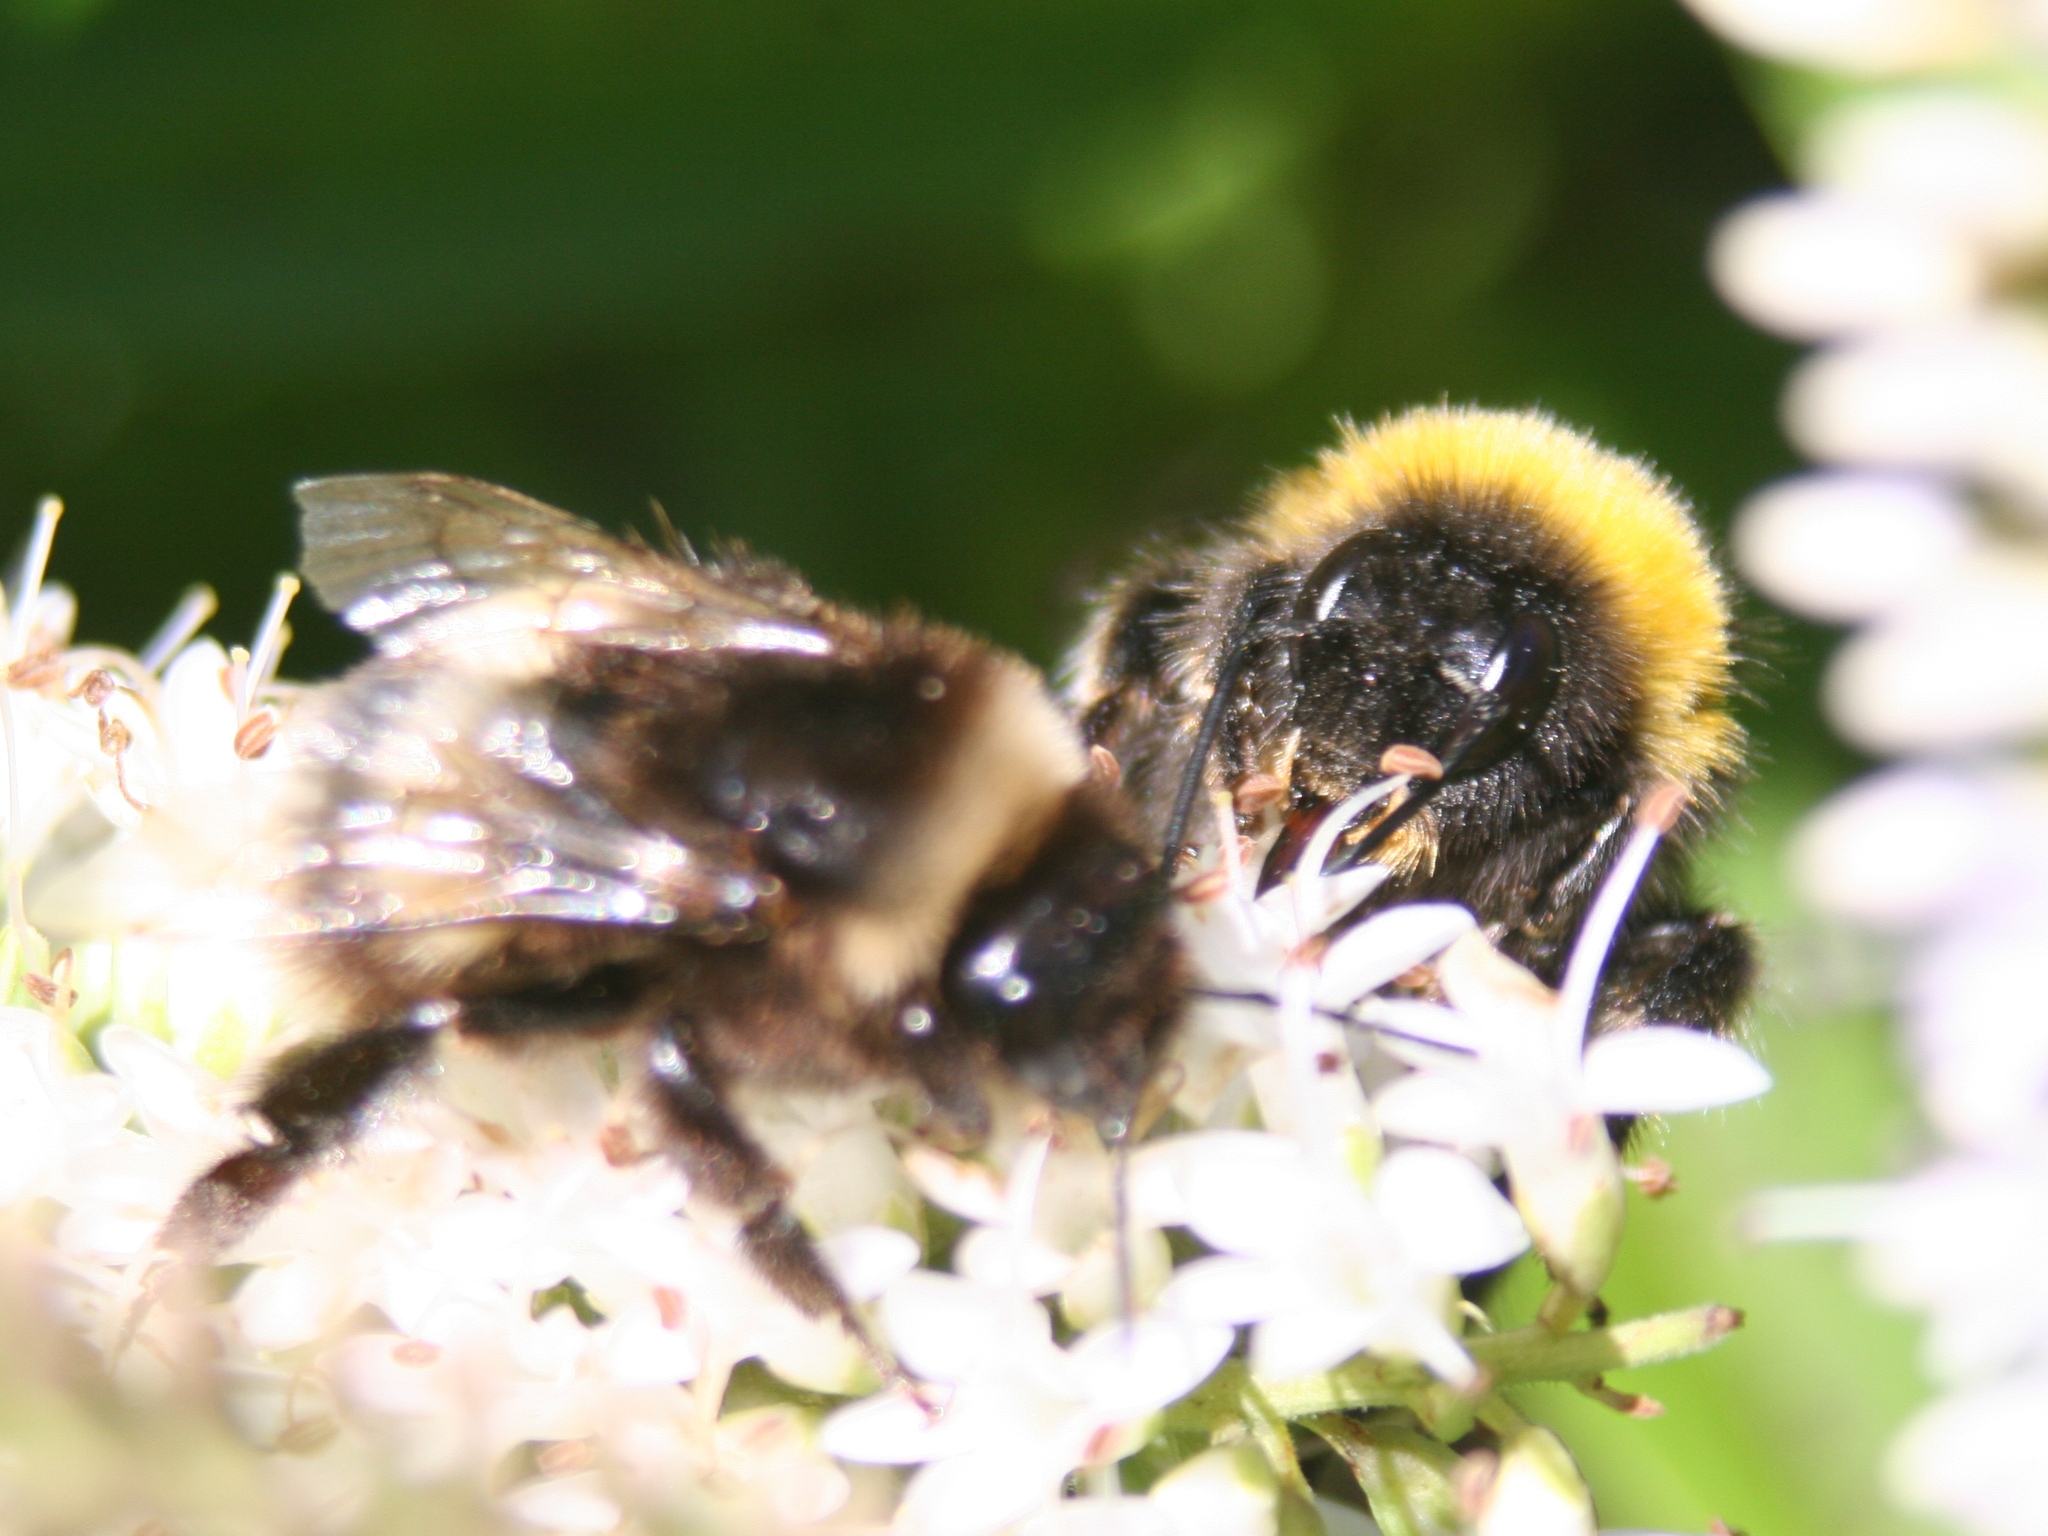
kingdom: Animalia
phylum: Arthropoda
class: Insecta
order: Hymenoptera
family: Apidae
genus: Bombus
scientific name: Bombus terrestris
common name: Buff-tailed bumblebee
